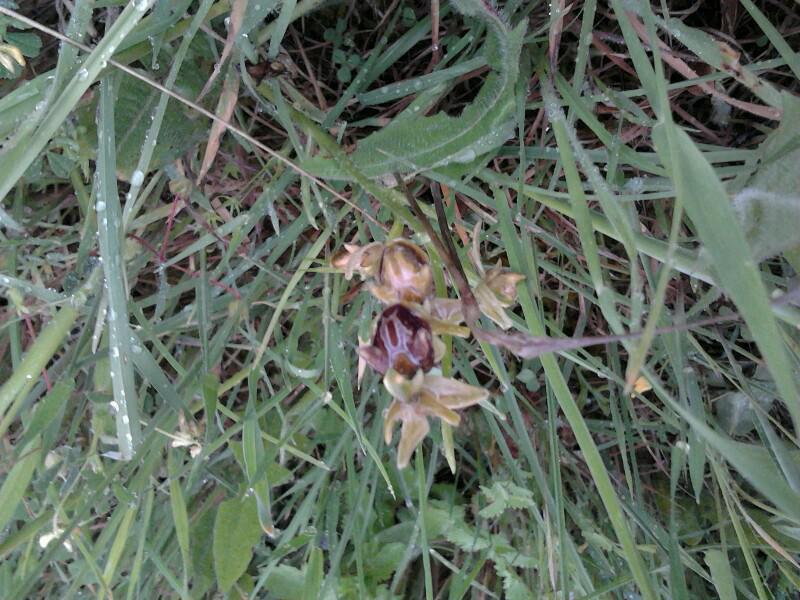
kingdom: Plantae
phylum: Tracheophyta
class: Liliopsida
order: Asparagales
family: Orchidaceae
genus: Ophrys
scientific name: Ophrys sphegodes
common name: Early spider-orchid
